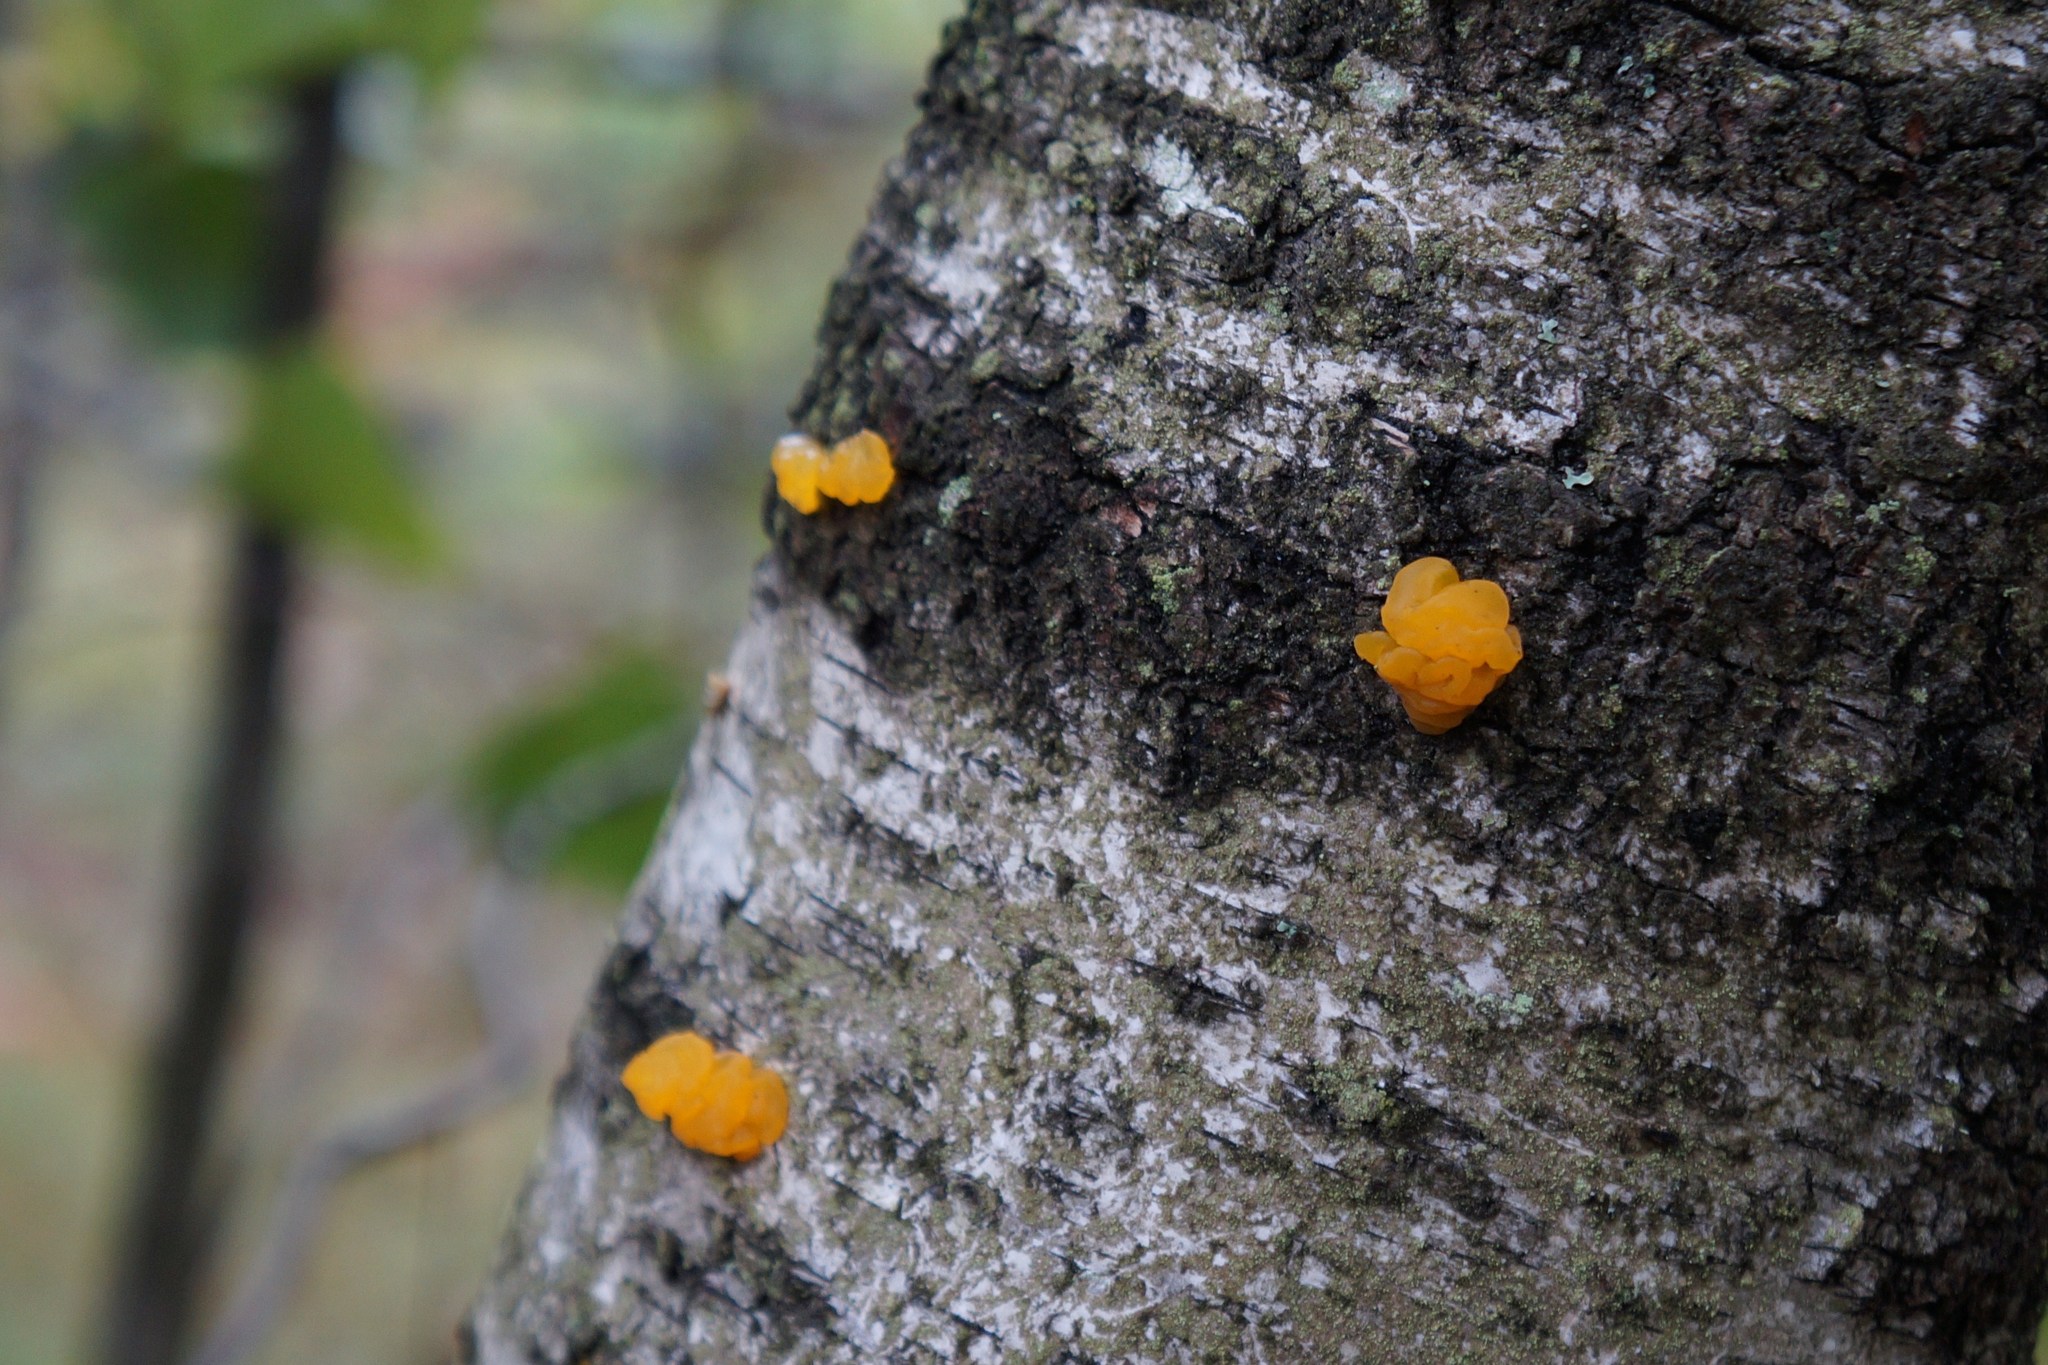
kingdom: Fungi
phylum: Basidiomycota
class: Tremellomycetes
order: Tremellales
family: Tremellaceae
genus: Tremella
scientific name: Tremella mesenterica
